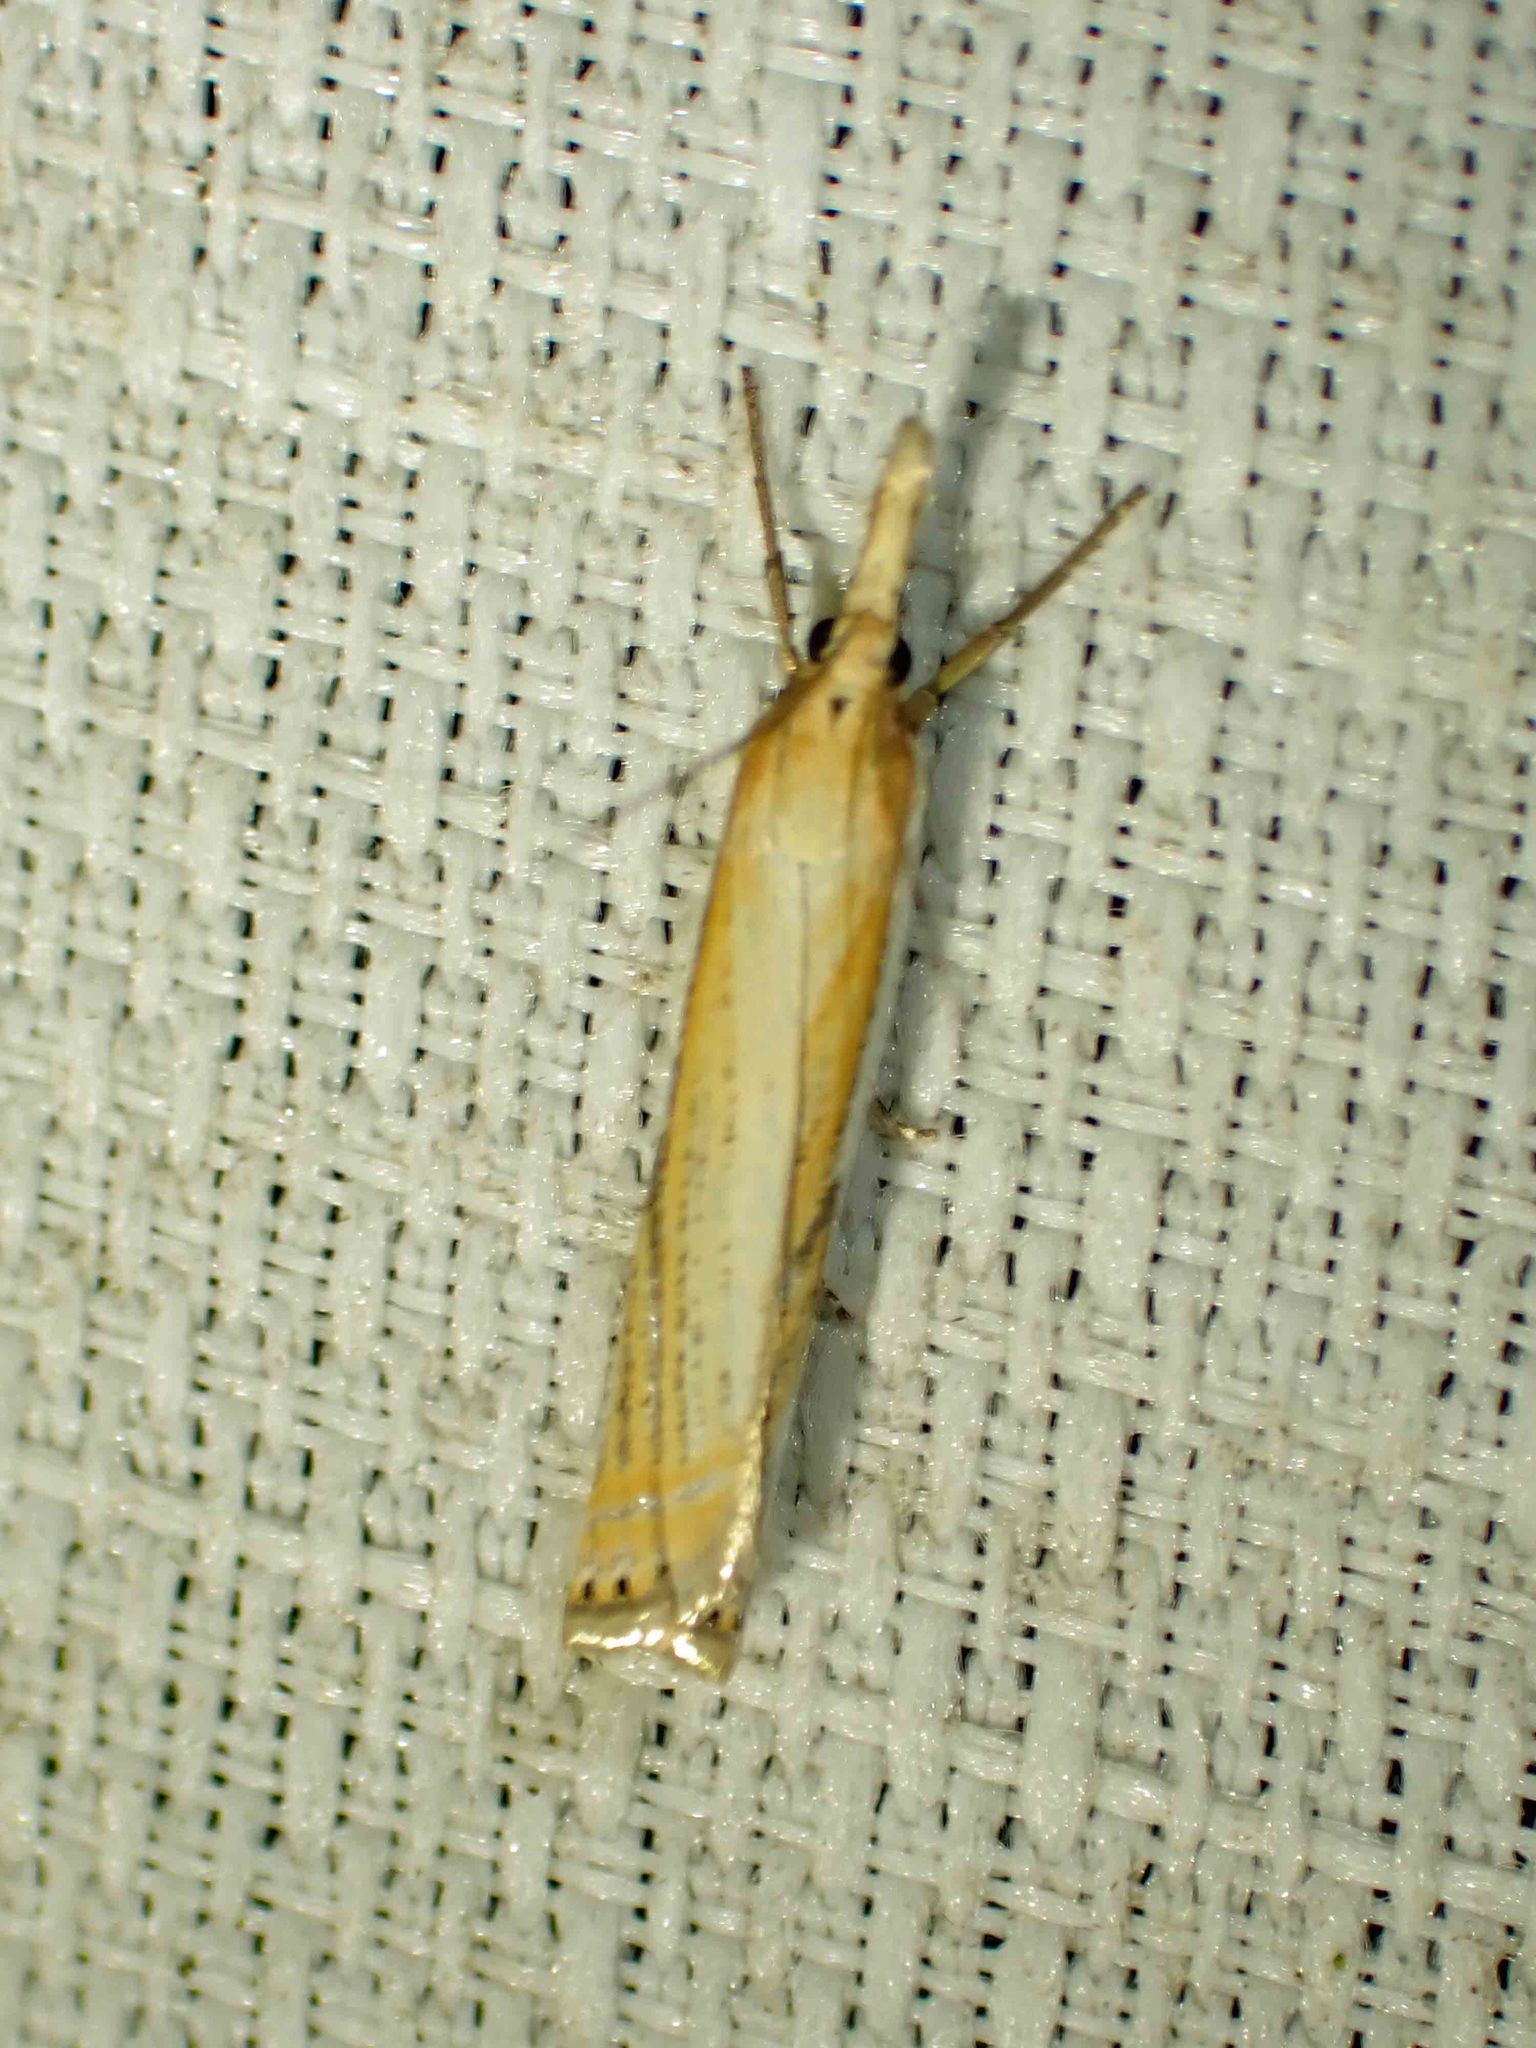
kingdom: Animalia
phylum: Arthropoda
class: Insecta
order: Lepidoptera
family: Crambidae
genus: Crambus
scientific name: Crambus saltuellus
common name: Pasture grass-veneer
